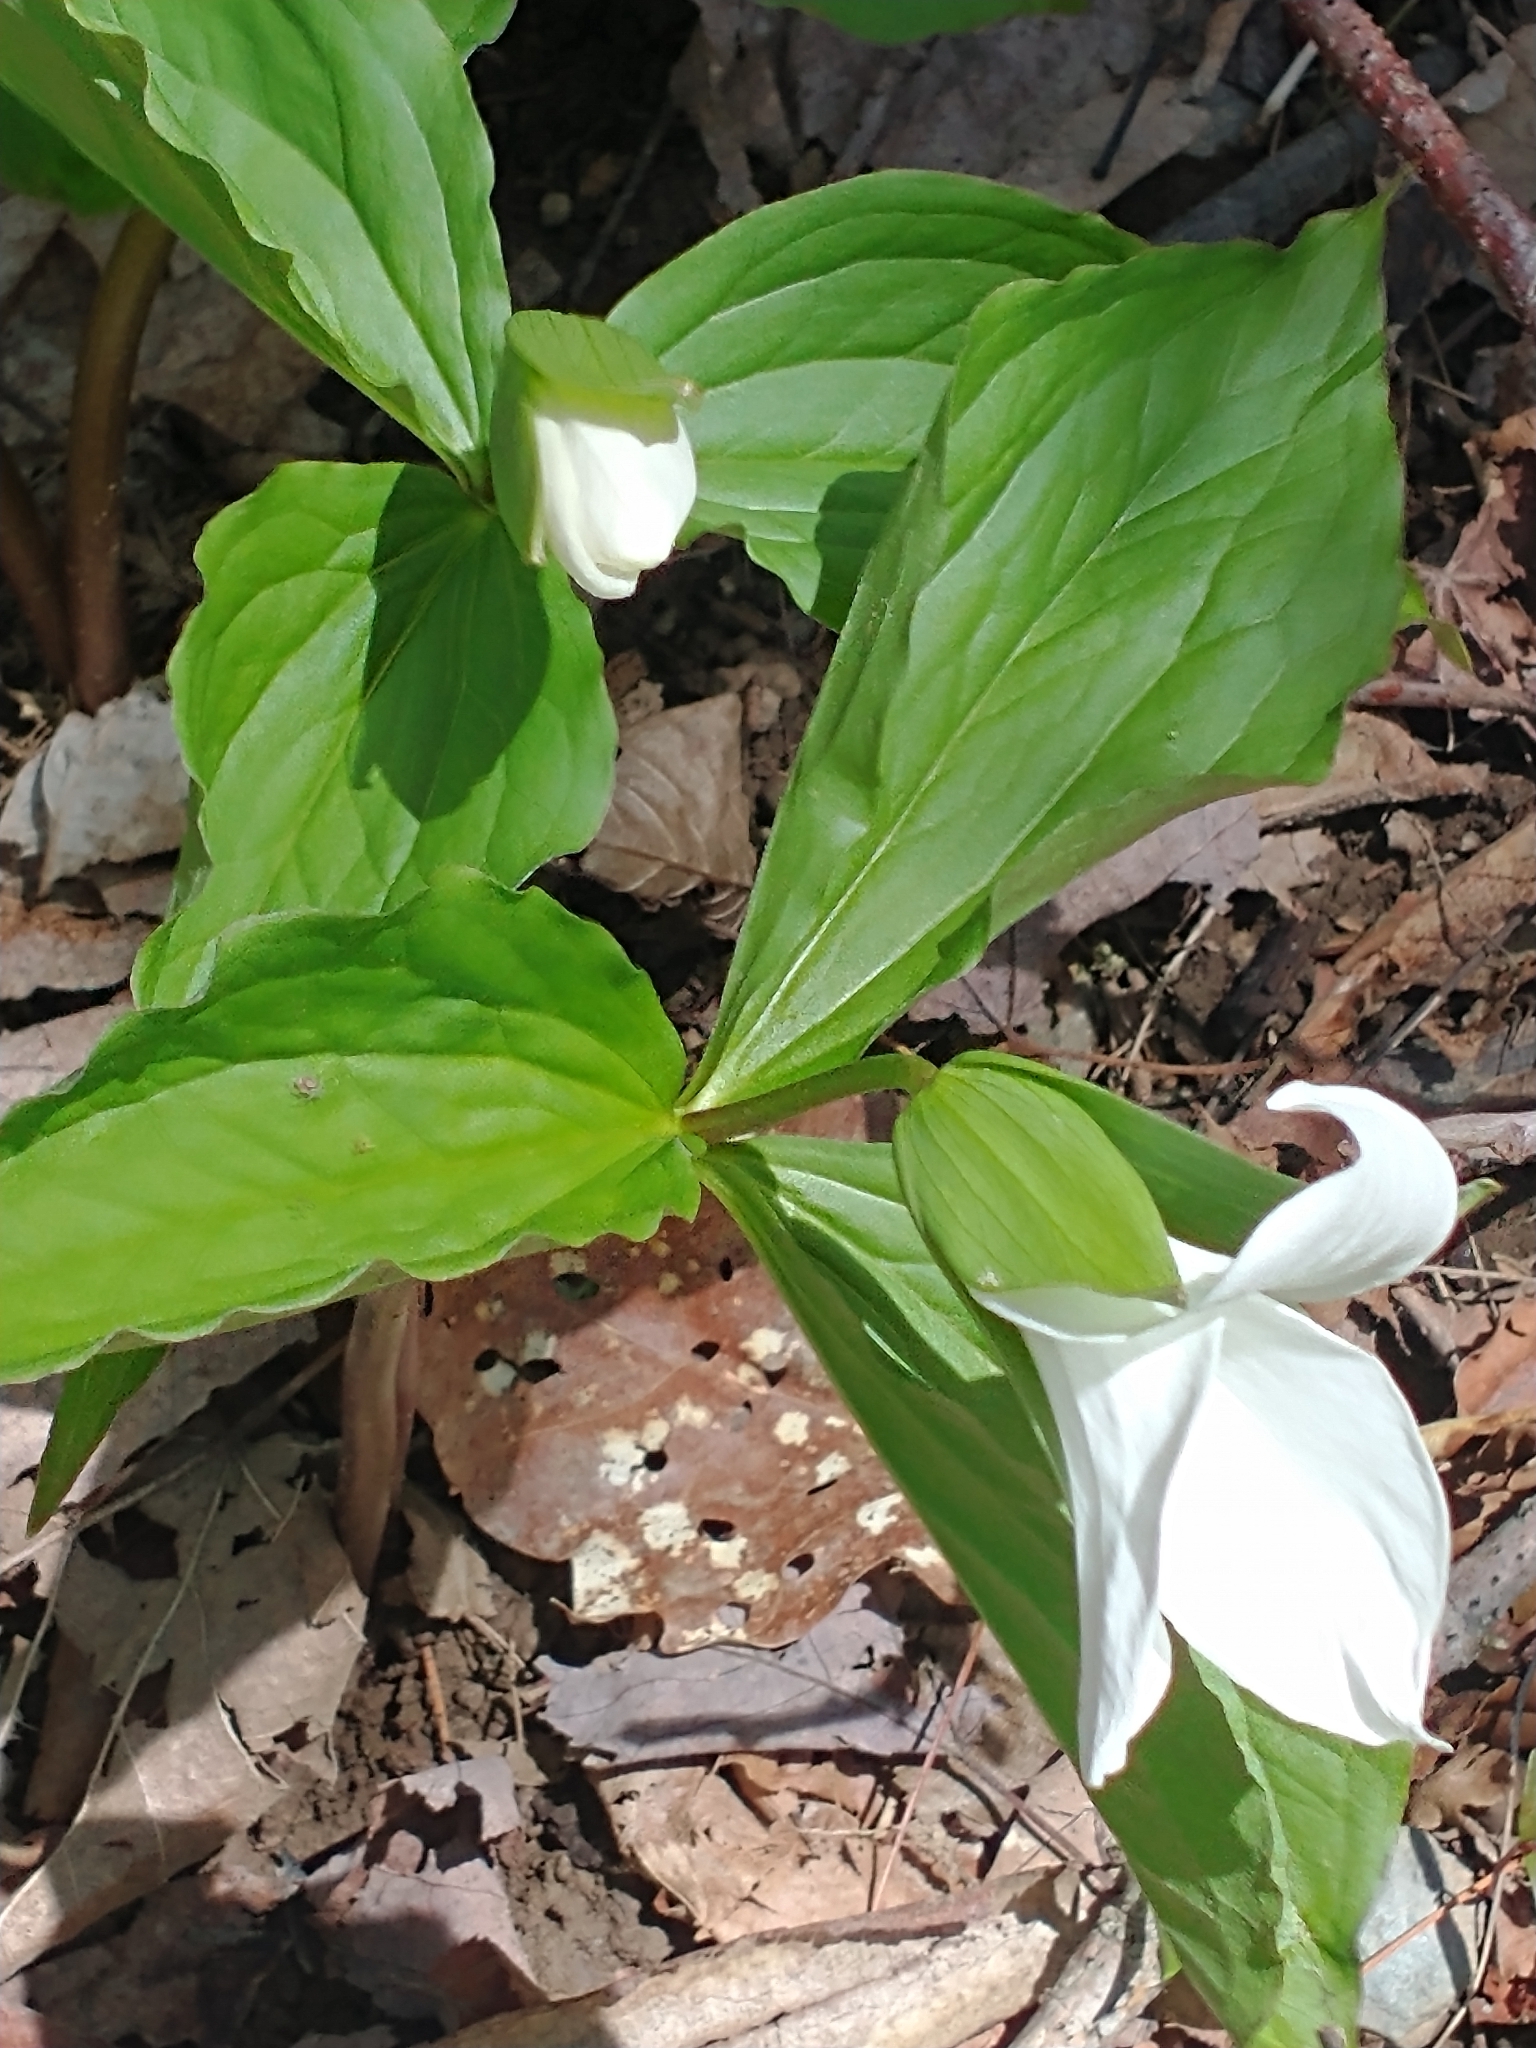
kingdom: Plantae
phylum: Tracheophyta
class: Liliopsida
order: Liliales
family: Melanthiaceae
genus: Trillium
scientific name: Trillium grandiflorum
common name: Great white trillium
